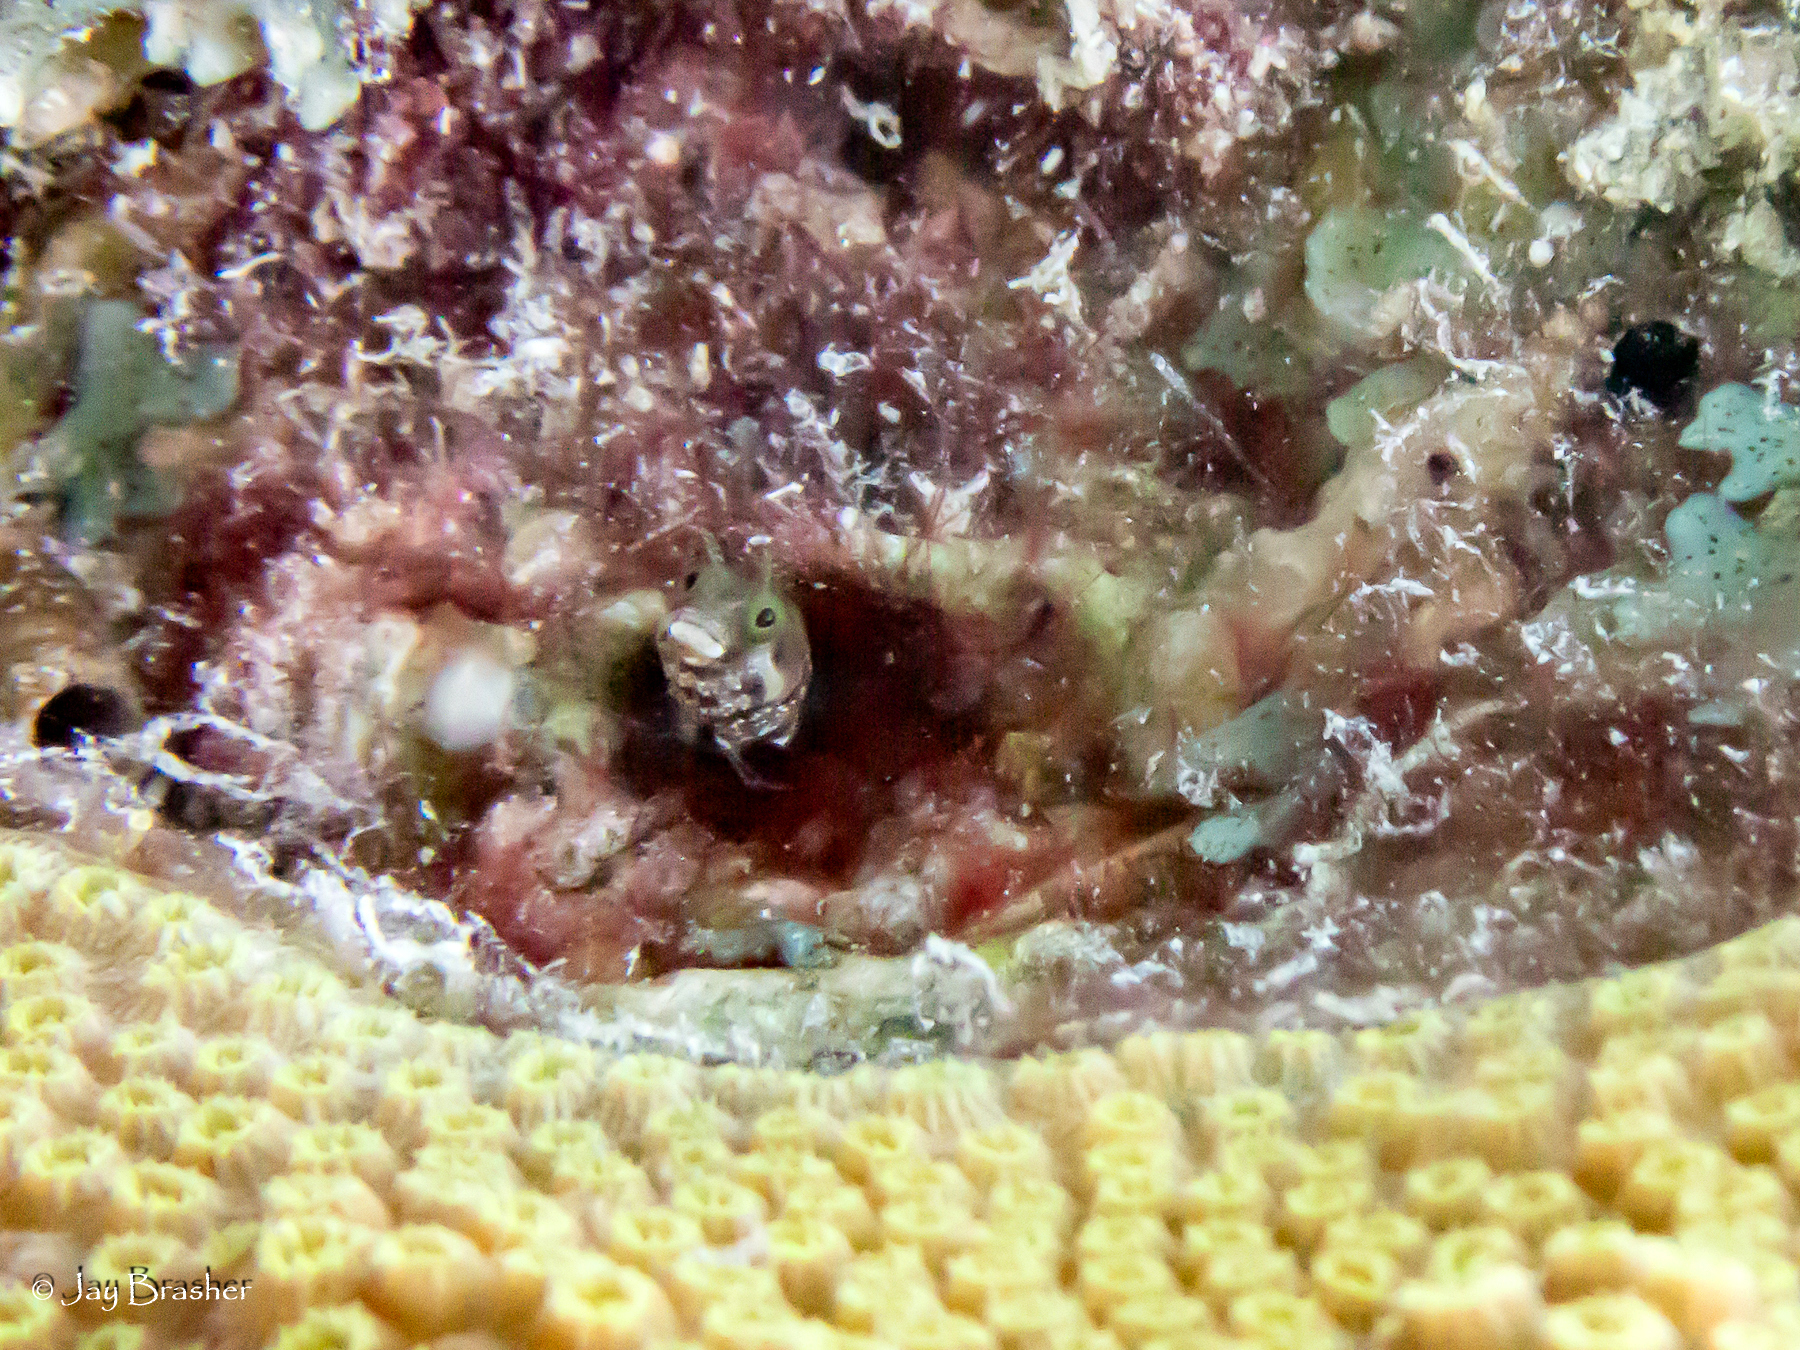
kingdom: Animalia
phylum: Chordata
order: Perciformes
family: Chaenopsidae
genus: Acanthemblemaria
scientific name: Acanthemblemaria spinosa
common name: Spinyhead blenny
